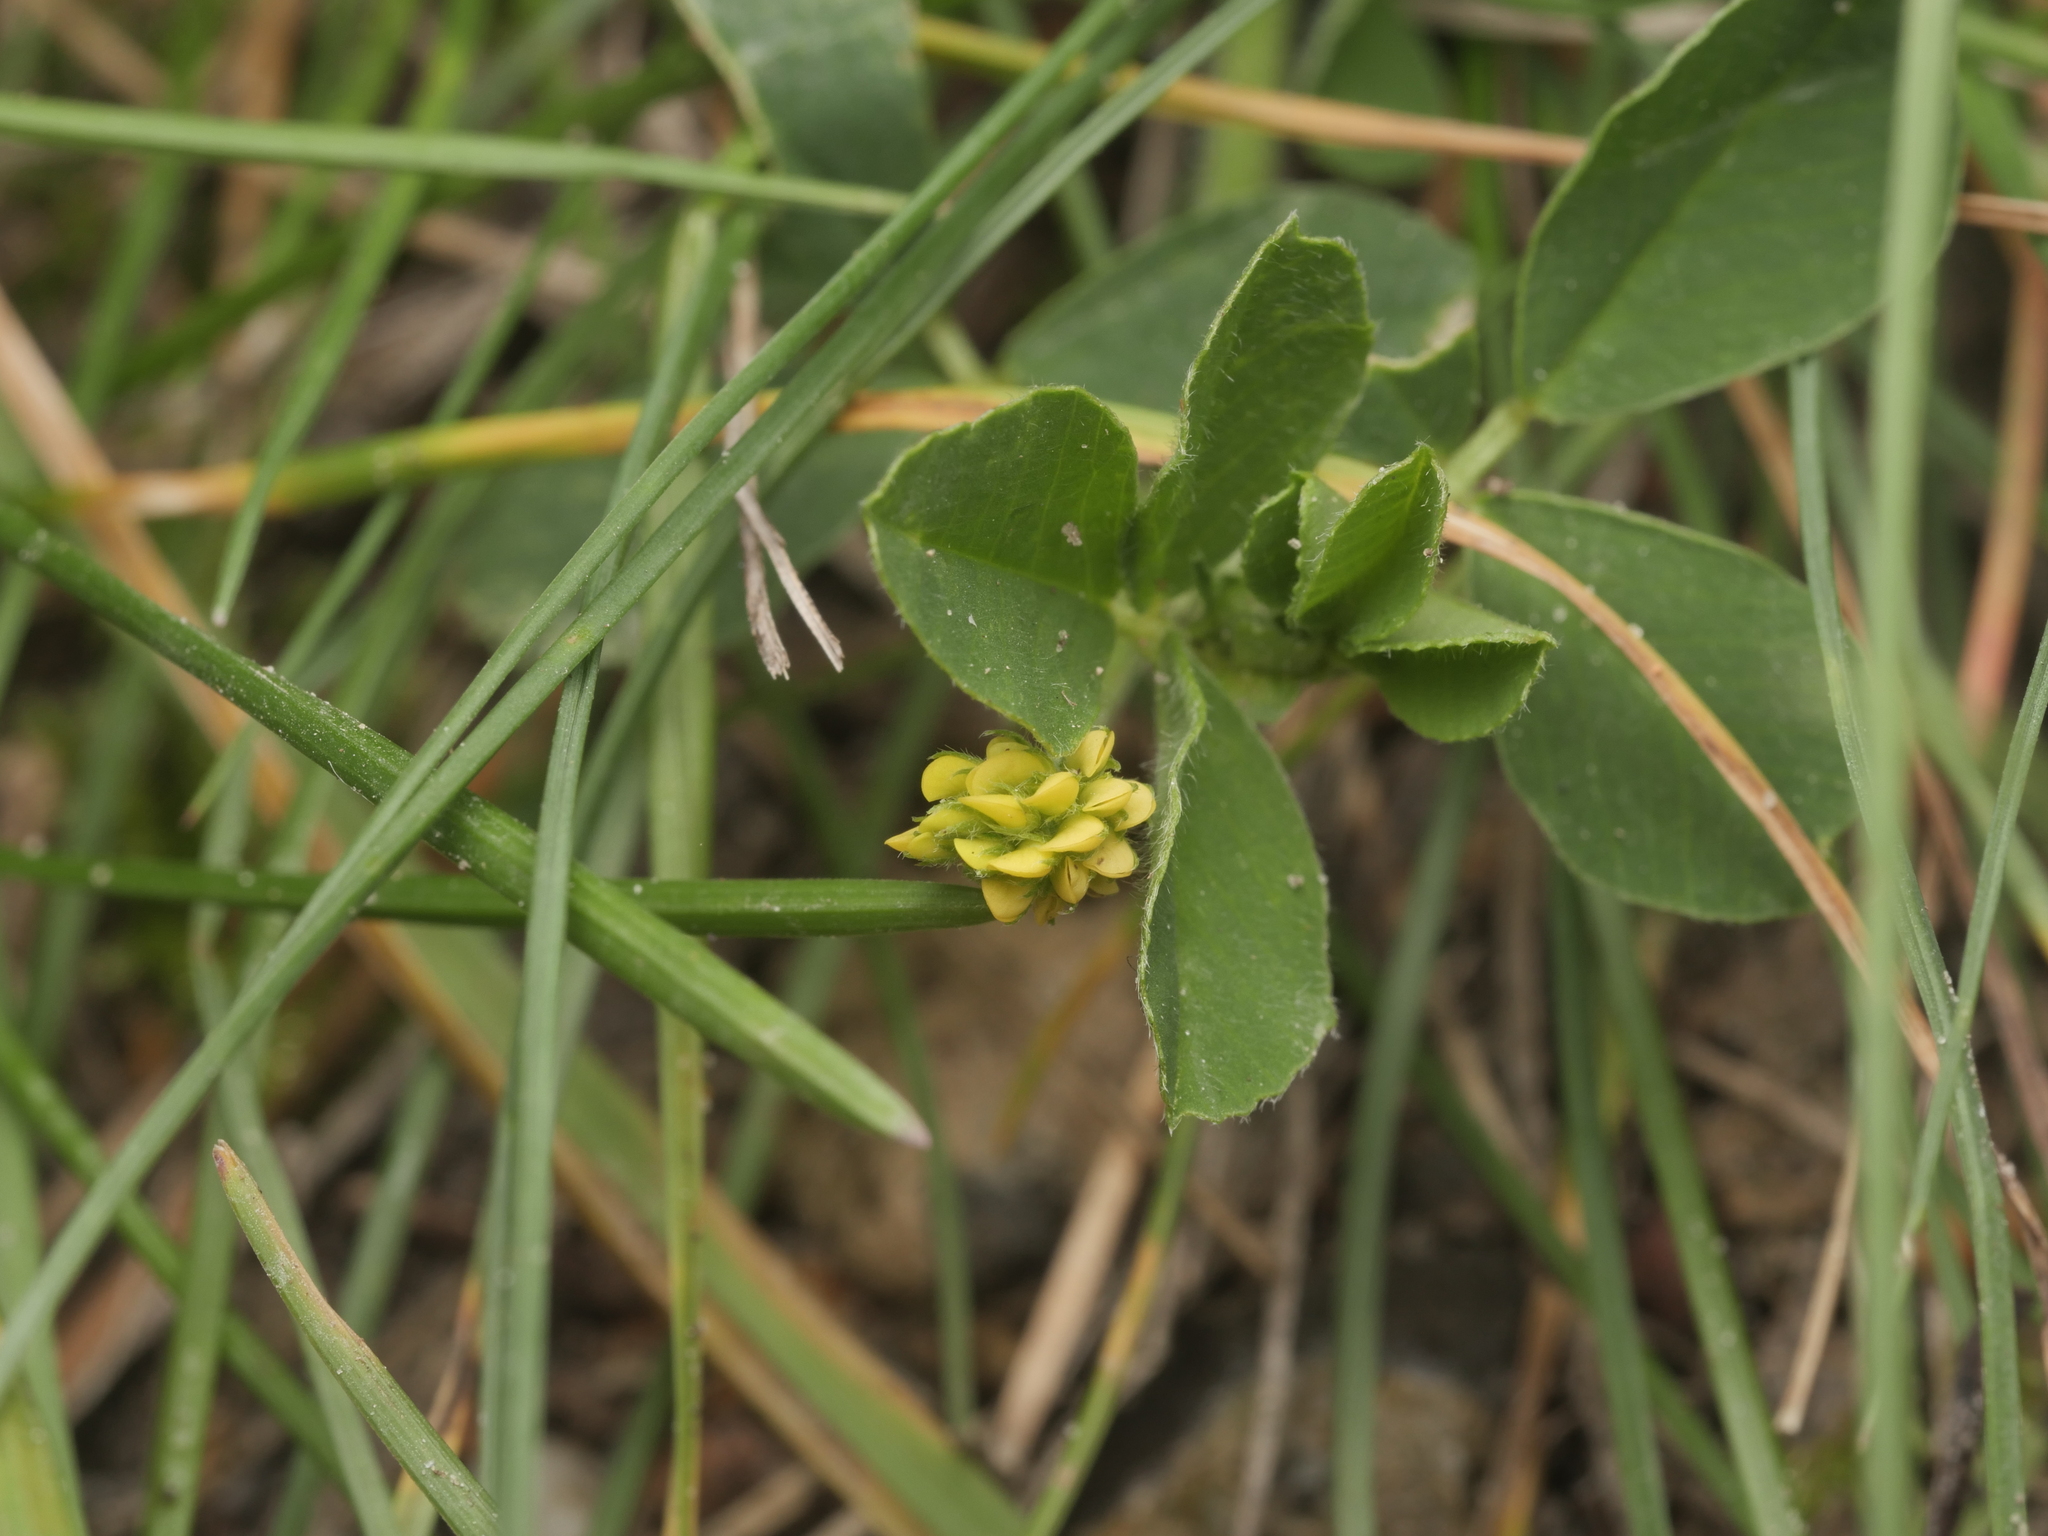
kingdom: Plantae
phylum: Tracheophyta
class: Magnoliopsida
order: Fabales
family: Fabaceae
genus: Medicago
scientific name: Medicago lupulina
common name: Black medick
